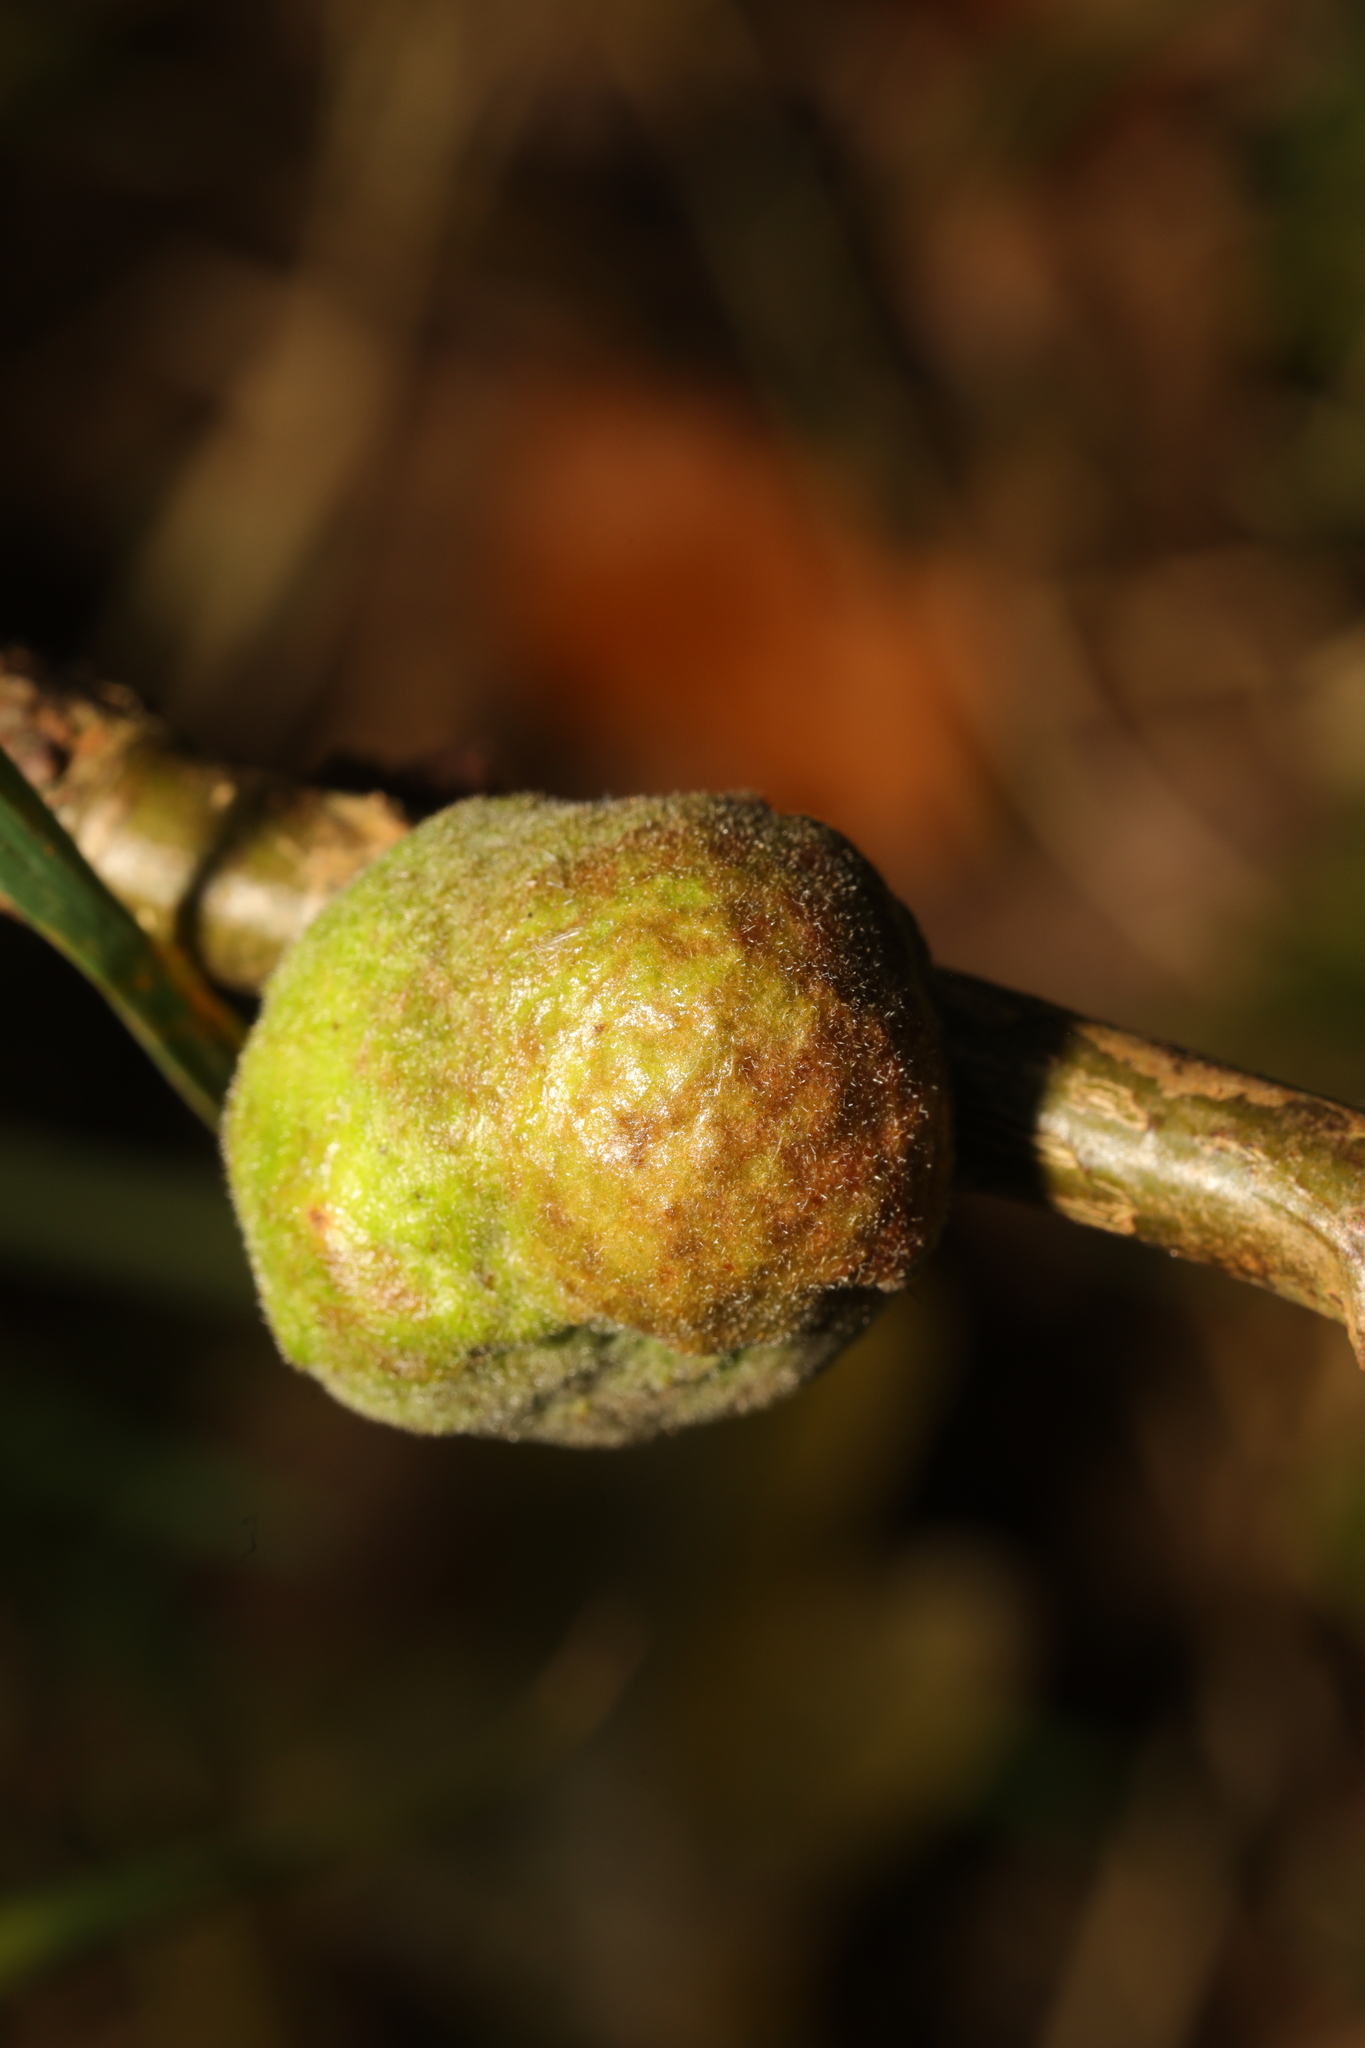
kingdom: Animalia
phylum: Arthropoda
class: Insecta
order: Hymenoptera
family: Cynipidae
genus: Aphelonyx
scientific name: Aphelonyx cerricola
